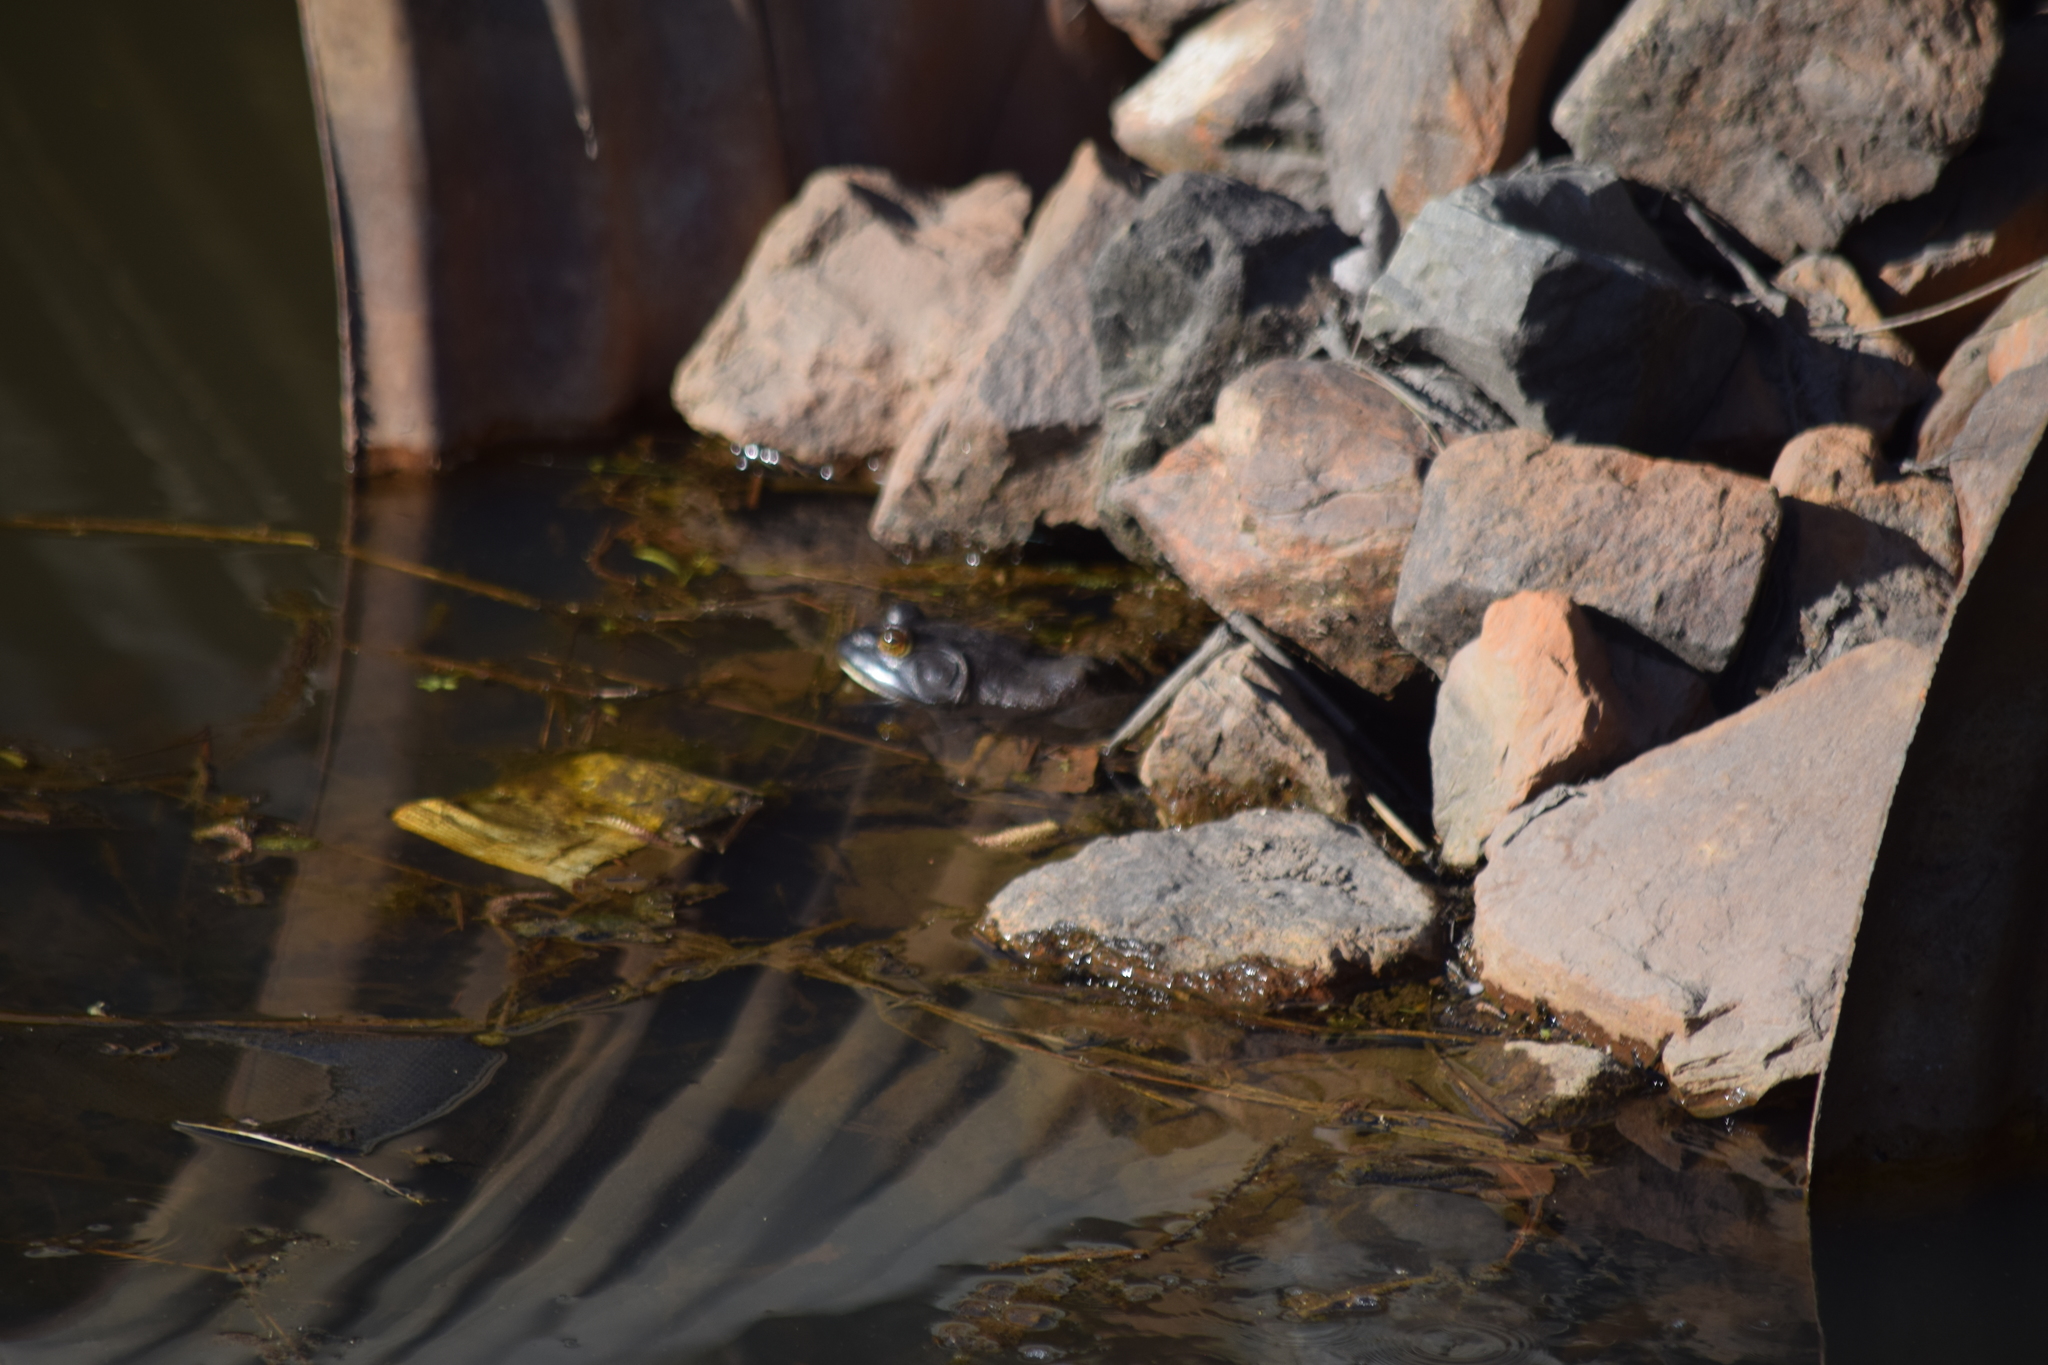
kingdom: Animalia
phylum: Chordata
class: Amphibia
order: Anura
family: Ranidae
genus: Lithobates
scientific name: Lithobates catesbeianus
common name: American bullfrog
